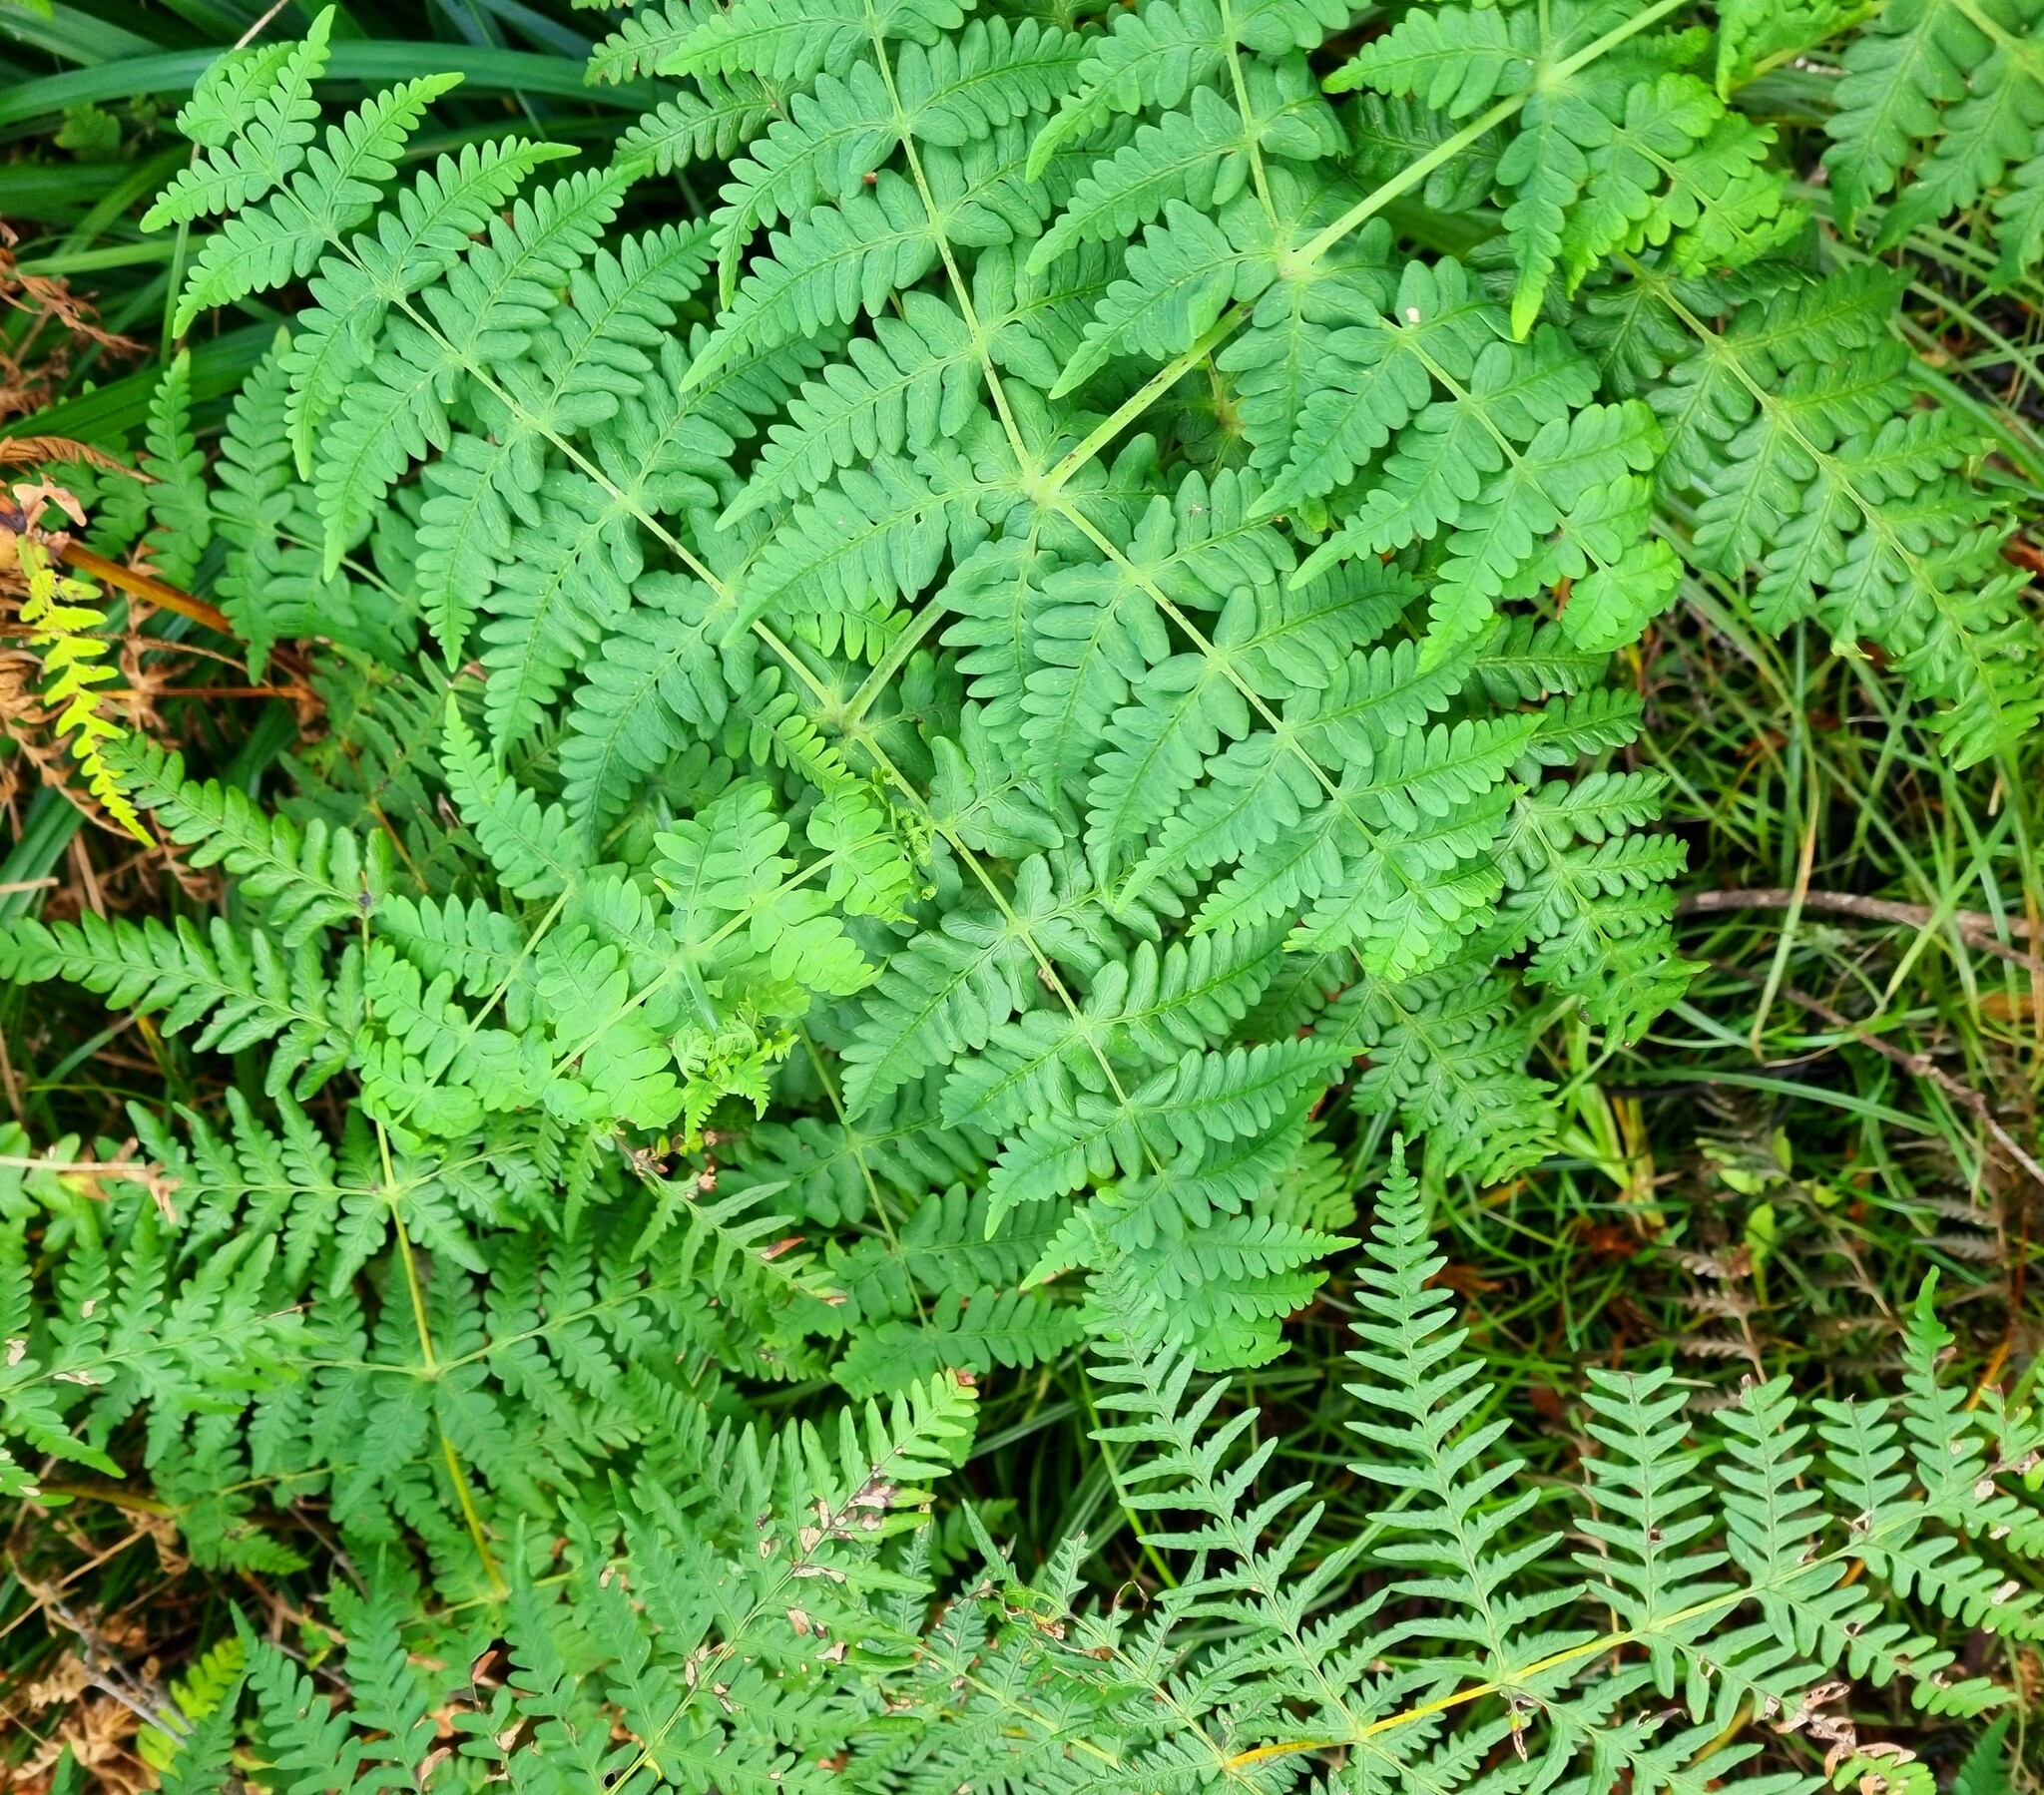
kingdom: Plantae
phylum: Tracheophyta
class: Polypodiopsida
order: Polypodiales
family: Dennstaedtiaceae
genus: Histiopteris
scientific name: Histiopteris incisa
